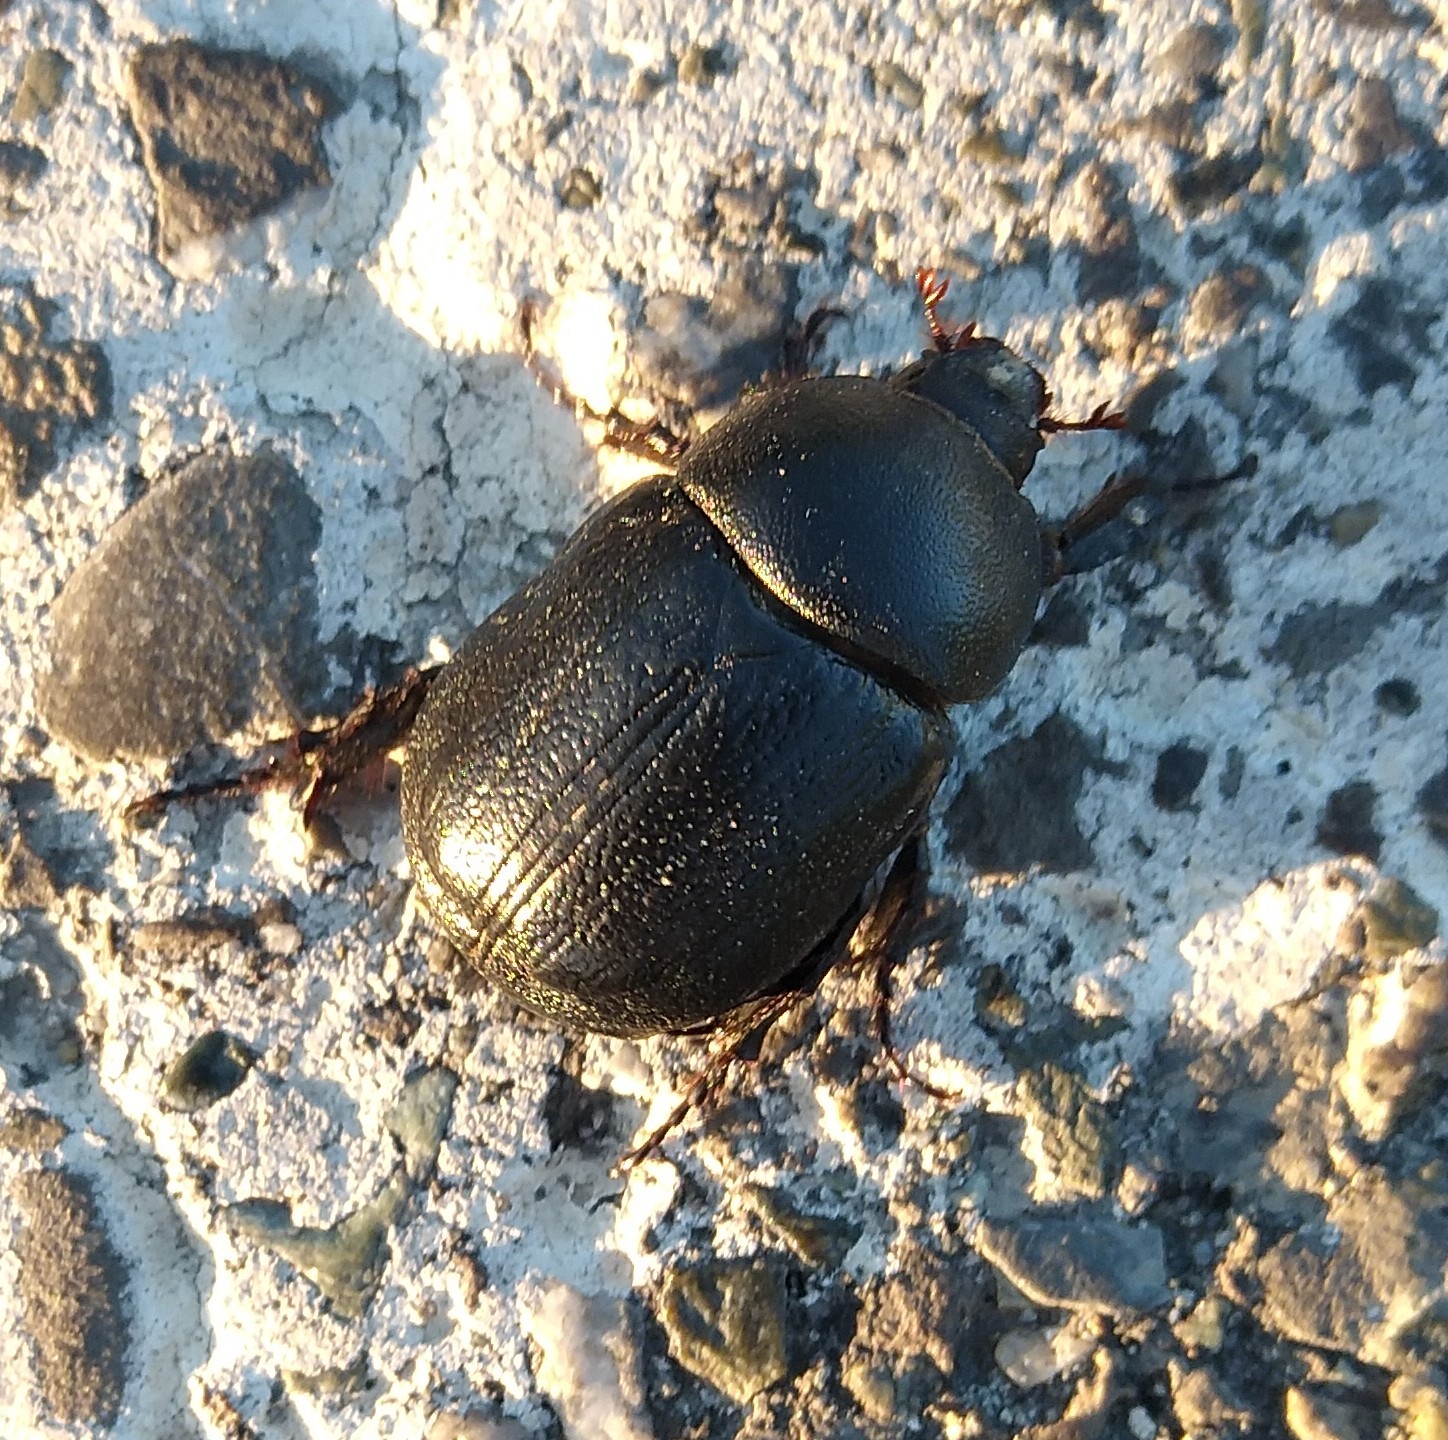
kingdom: Animalia
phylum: Arthropoda
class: Insecta
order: Coleoptera
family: Scarabaeidae
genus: Pentodon
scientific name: Pentodon bidens
